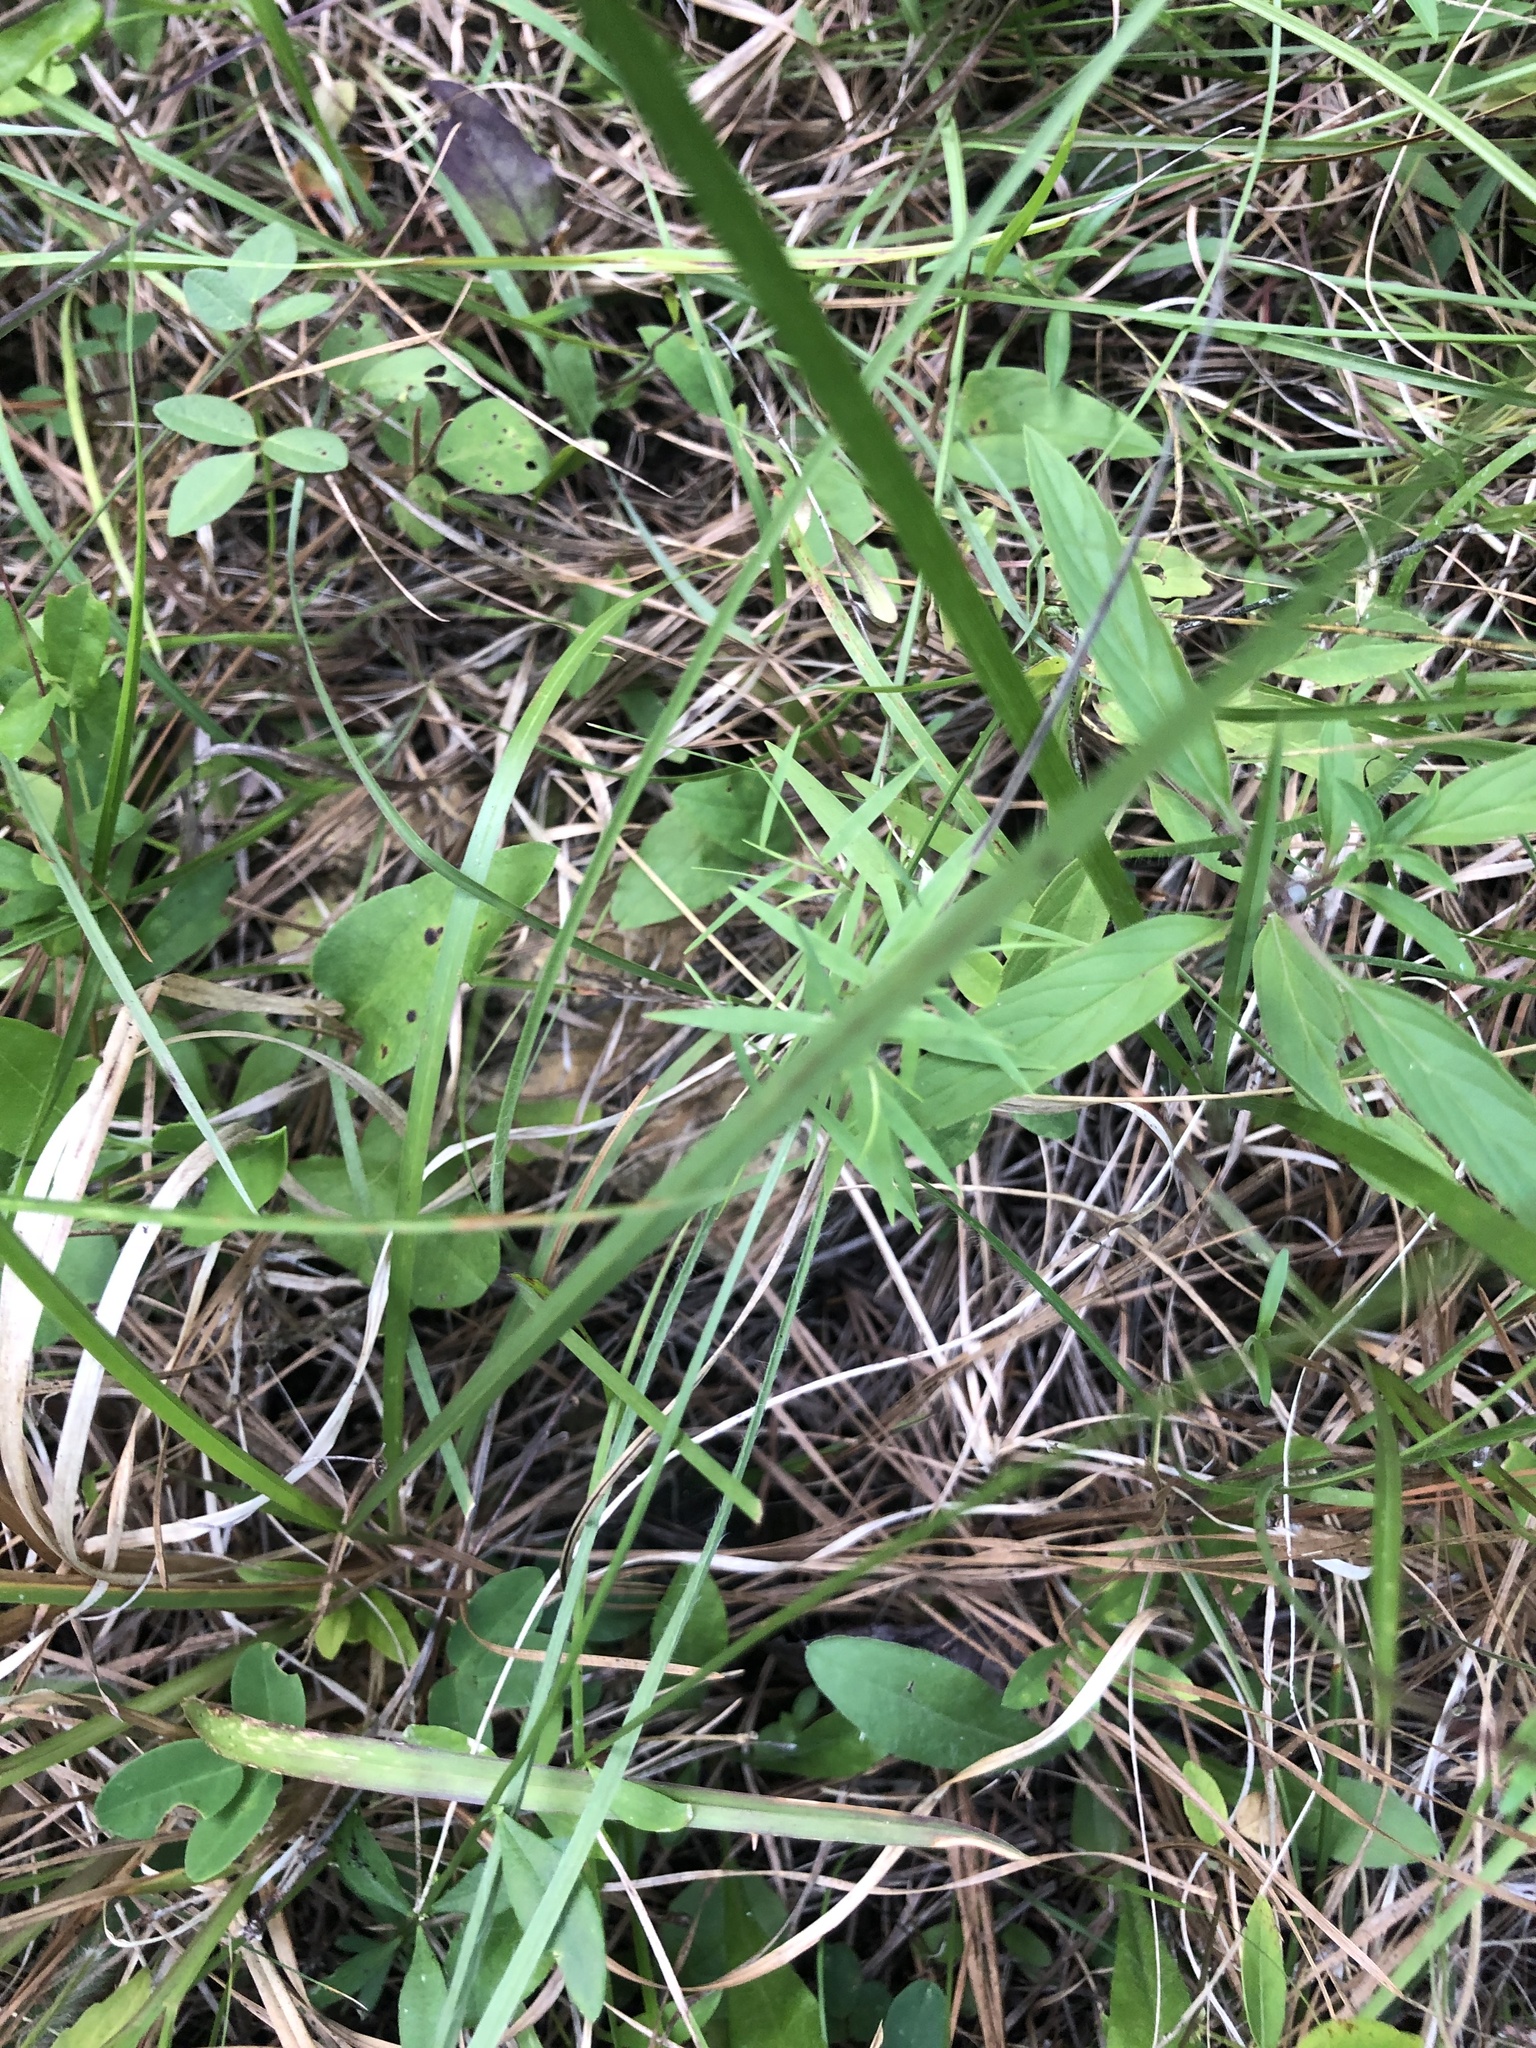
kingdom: Plantae
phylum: Tracheophyta
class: Magnoliopsida
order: Fabales
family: Fabaceae
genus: Lespedeza
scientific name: Lespedeza virginica
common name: Slender bush-clover
